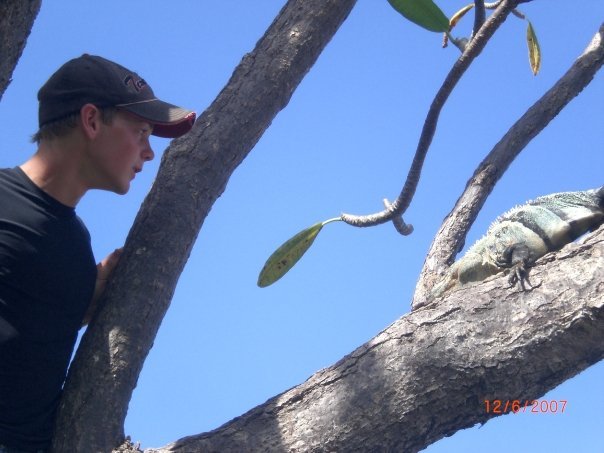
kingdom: Animalia
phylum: Chordata
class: Squamata
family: Iguanidae
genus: Ctenosaura
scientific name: Ctenosaura similis
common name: Black spiny-tailed iguana
